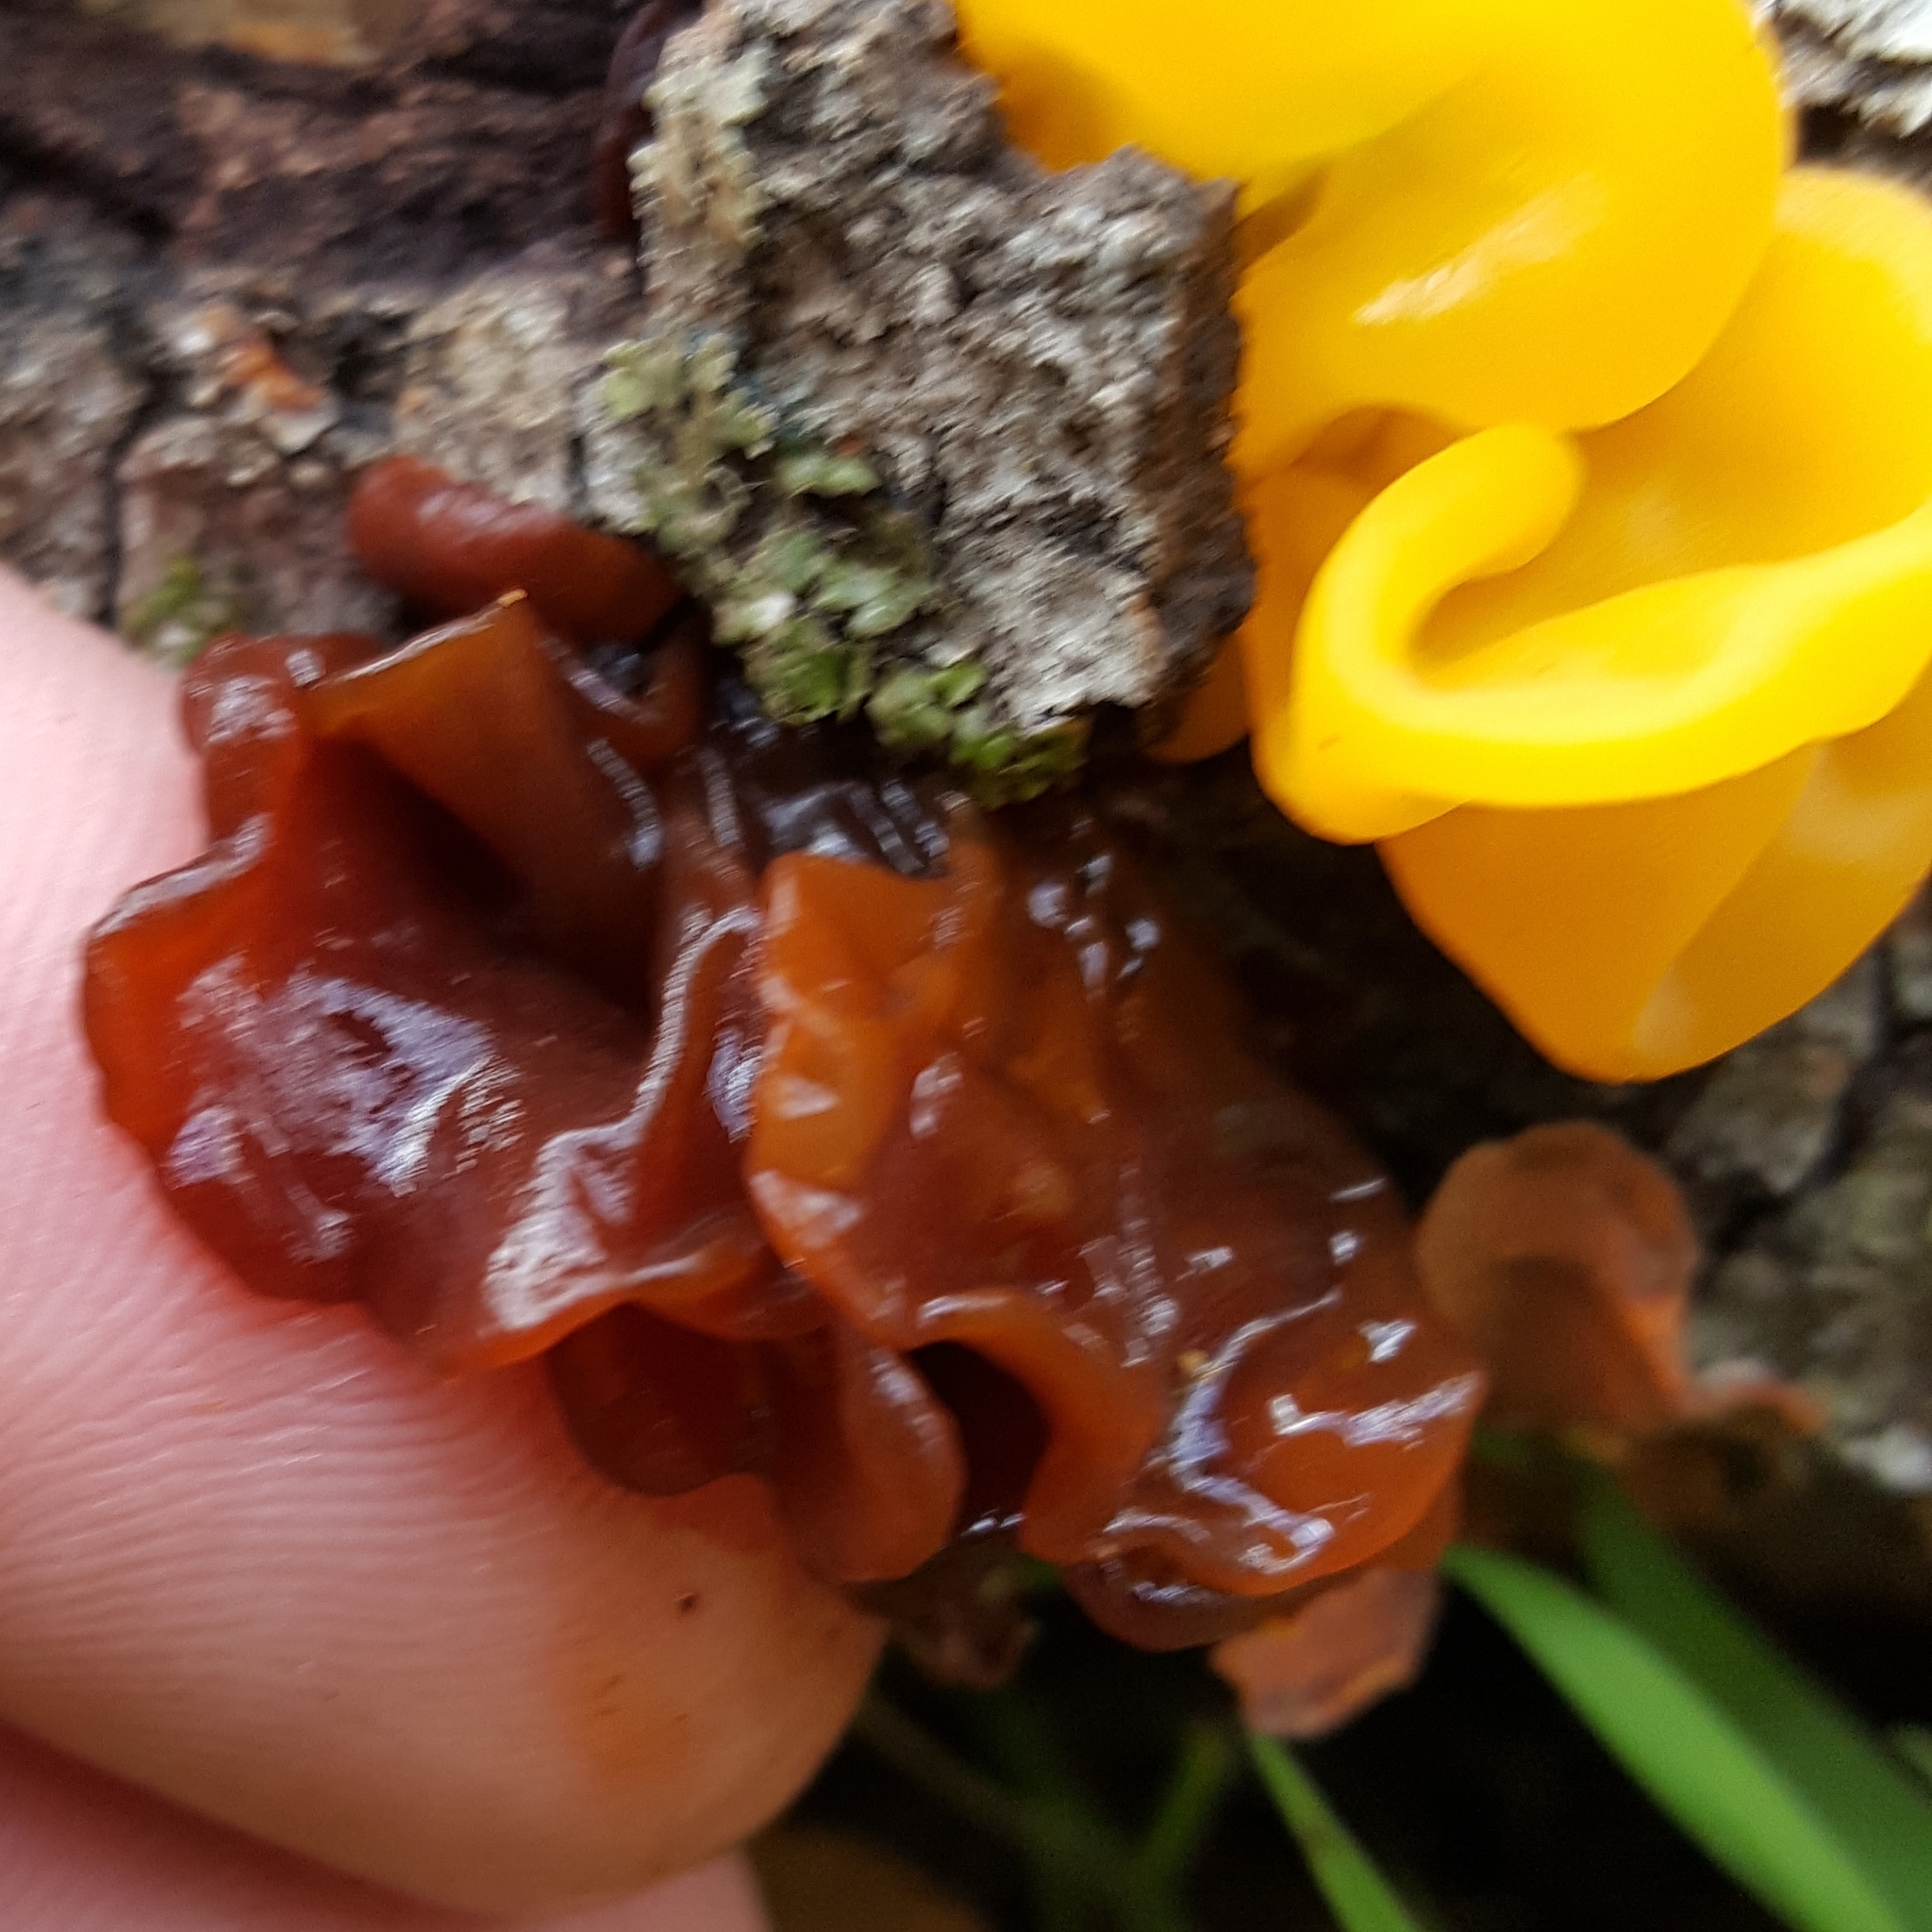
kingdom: Fungi
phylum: Basidiomycota
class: Tremellomycetes
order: Tremellales
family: Tremellaceae
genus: Phaeotremella
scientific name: Phaeotremella foliacea
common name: Leafy brain
